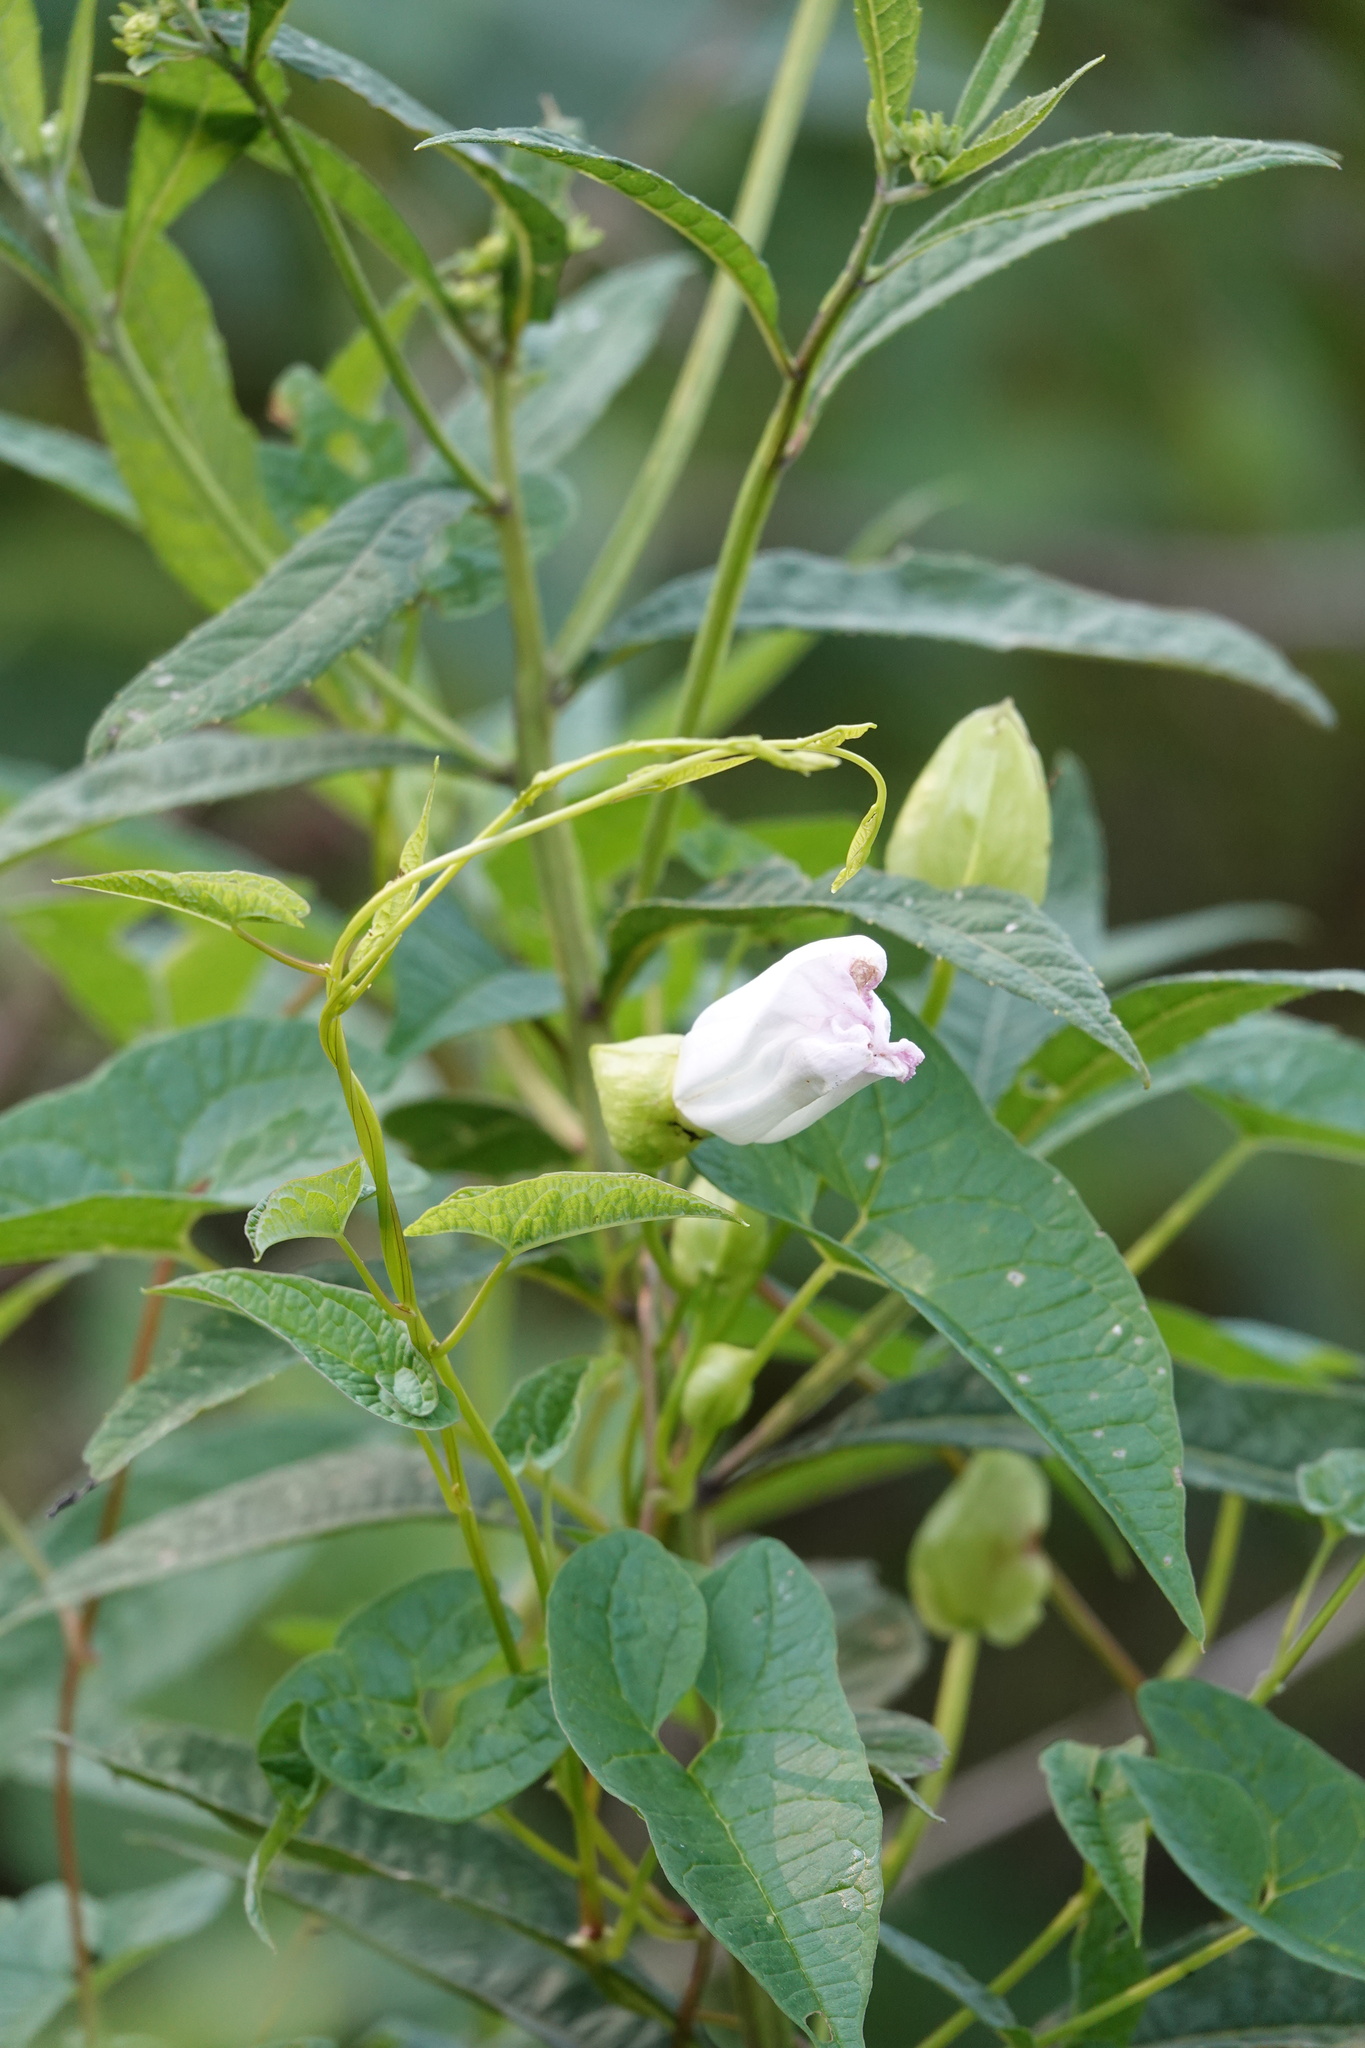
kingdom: Plantae
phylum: Tracheophyta
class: Magnoliopsida
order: Solanales
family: Convolvulaceae
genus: Ipomoea
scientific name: Ipomoea pandurata
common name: Man-of-the-earth
